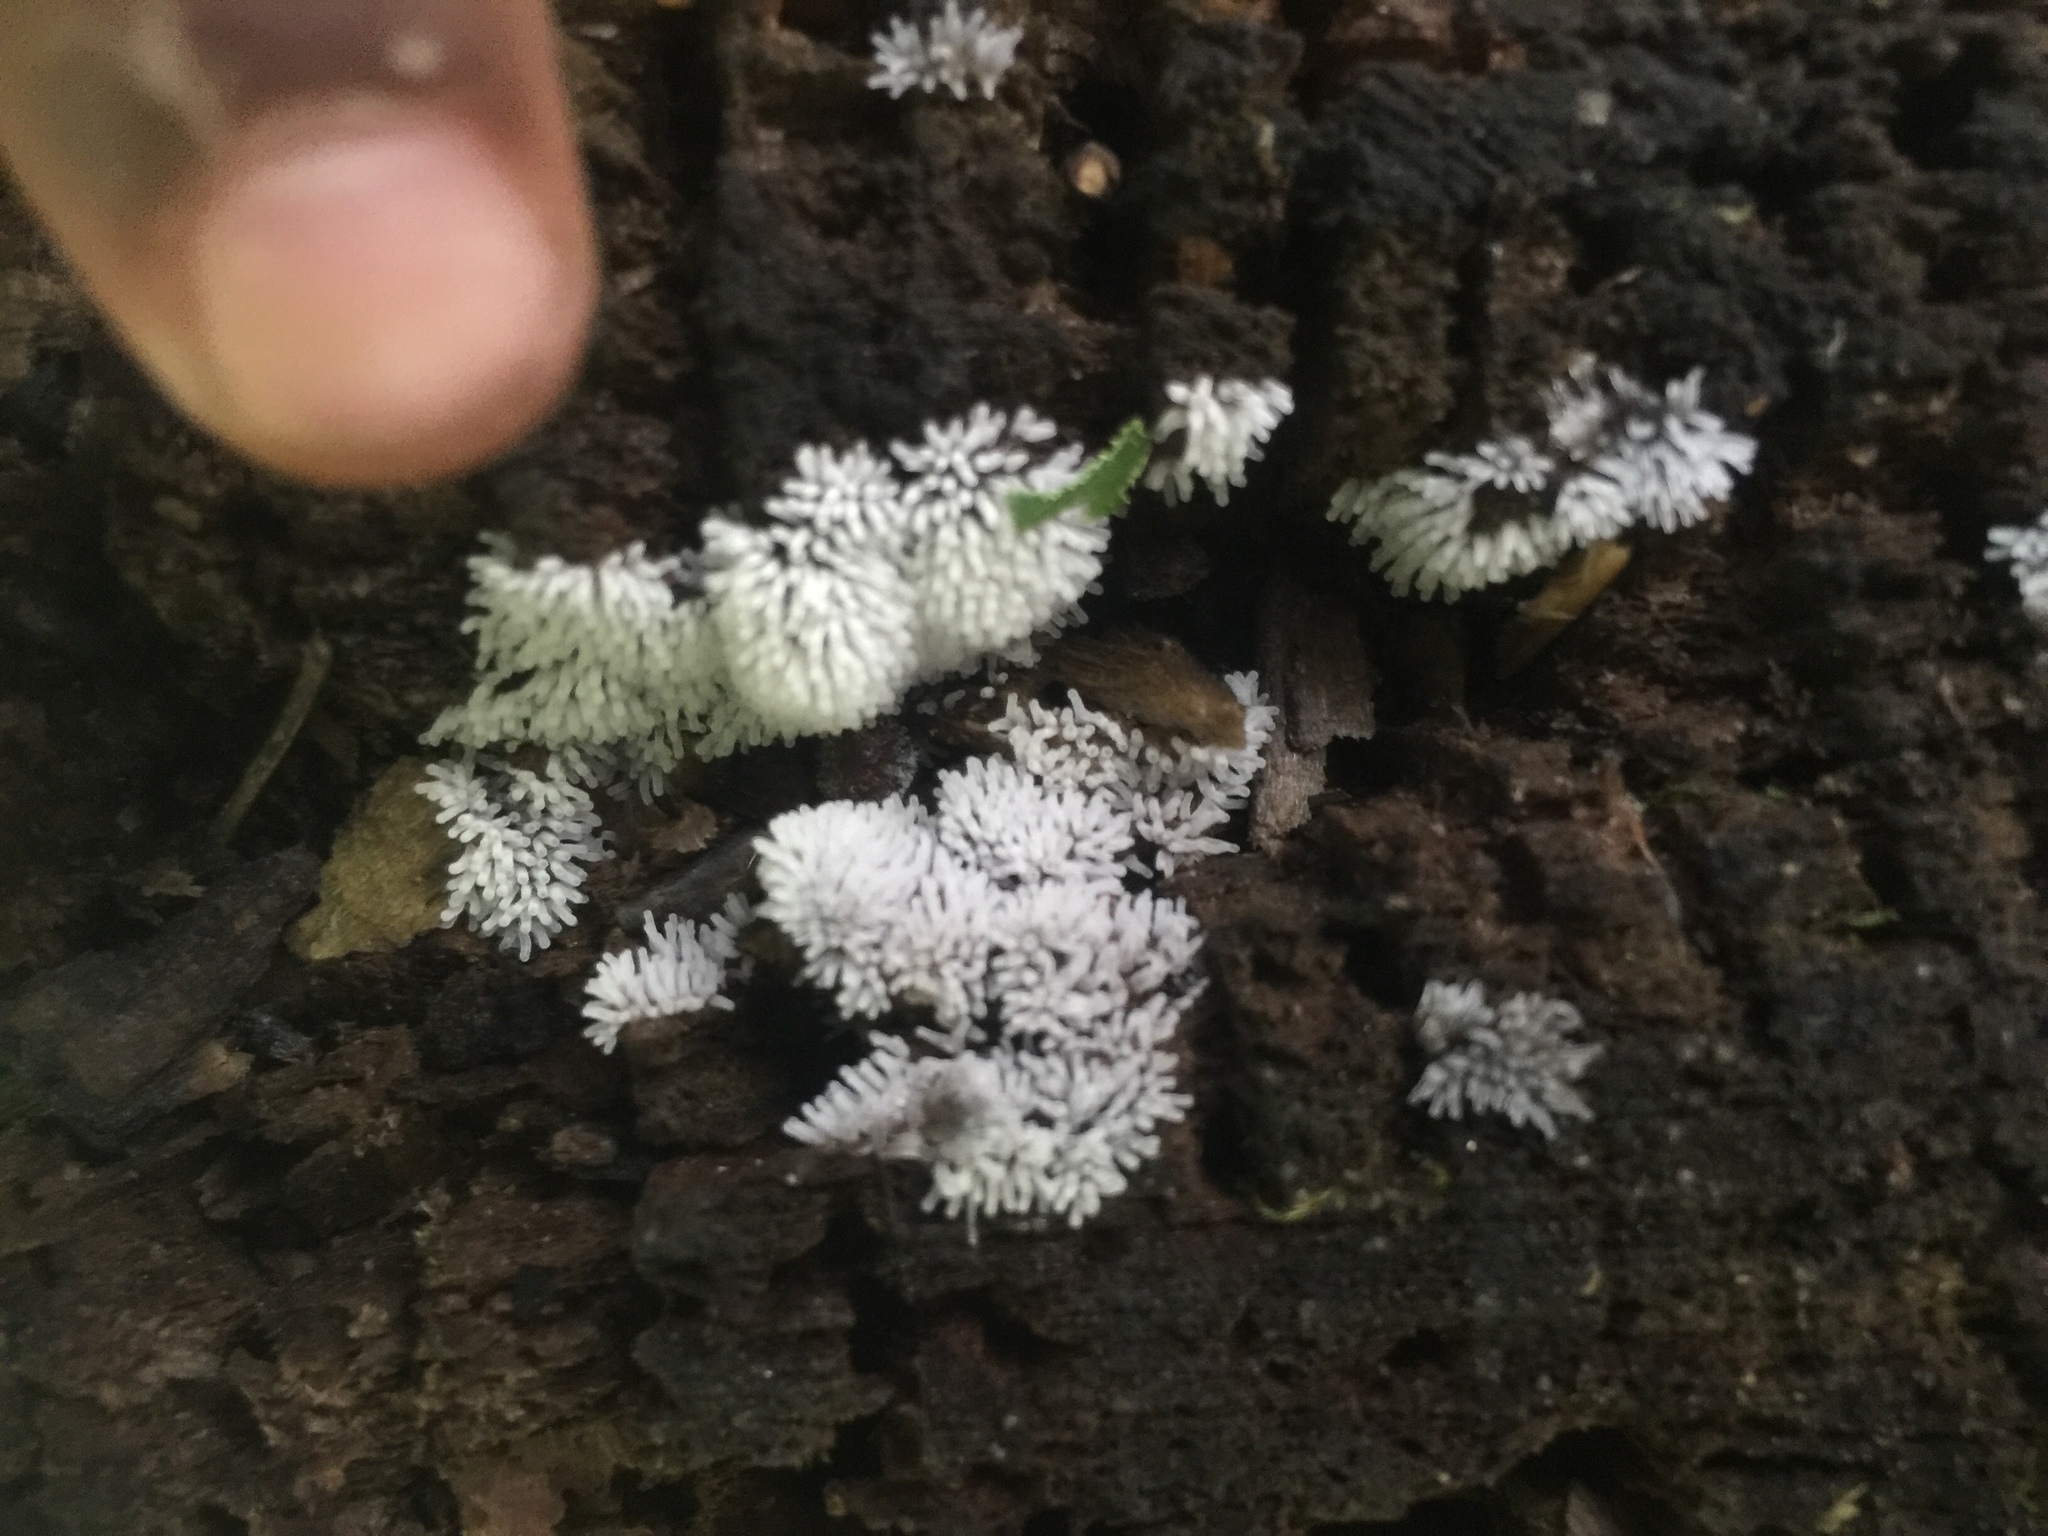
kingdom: Protozoa
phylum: Mycetozoa
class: Protosteliomycetes
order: Ceratiomyxales
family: Ceratiomyxaceae
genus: Ceratiomyxa
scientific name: Ceratiomyxa fruticulosa
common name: Honeycomb coral slime mold
